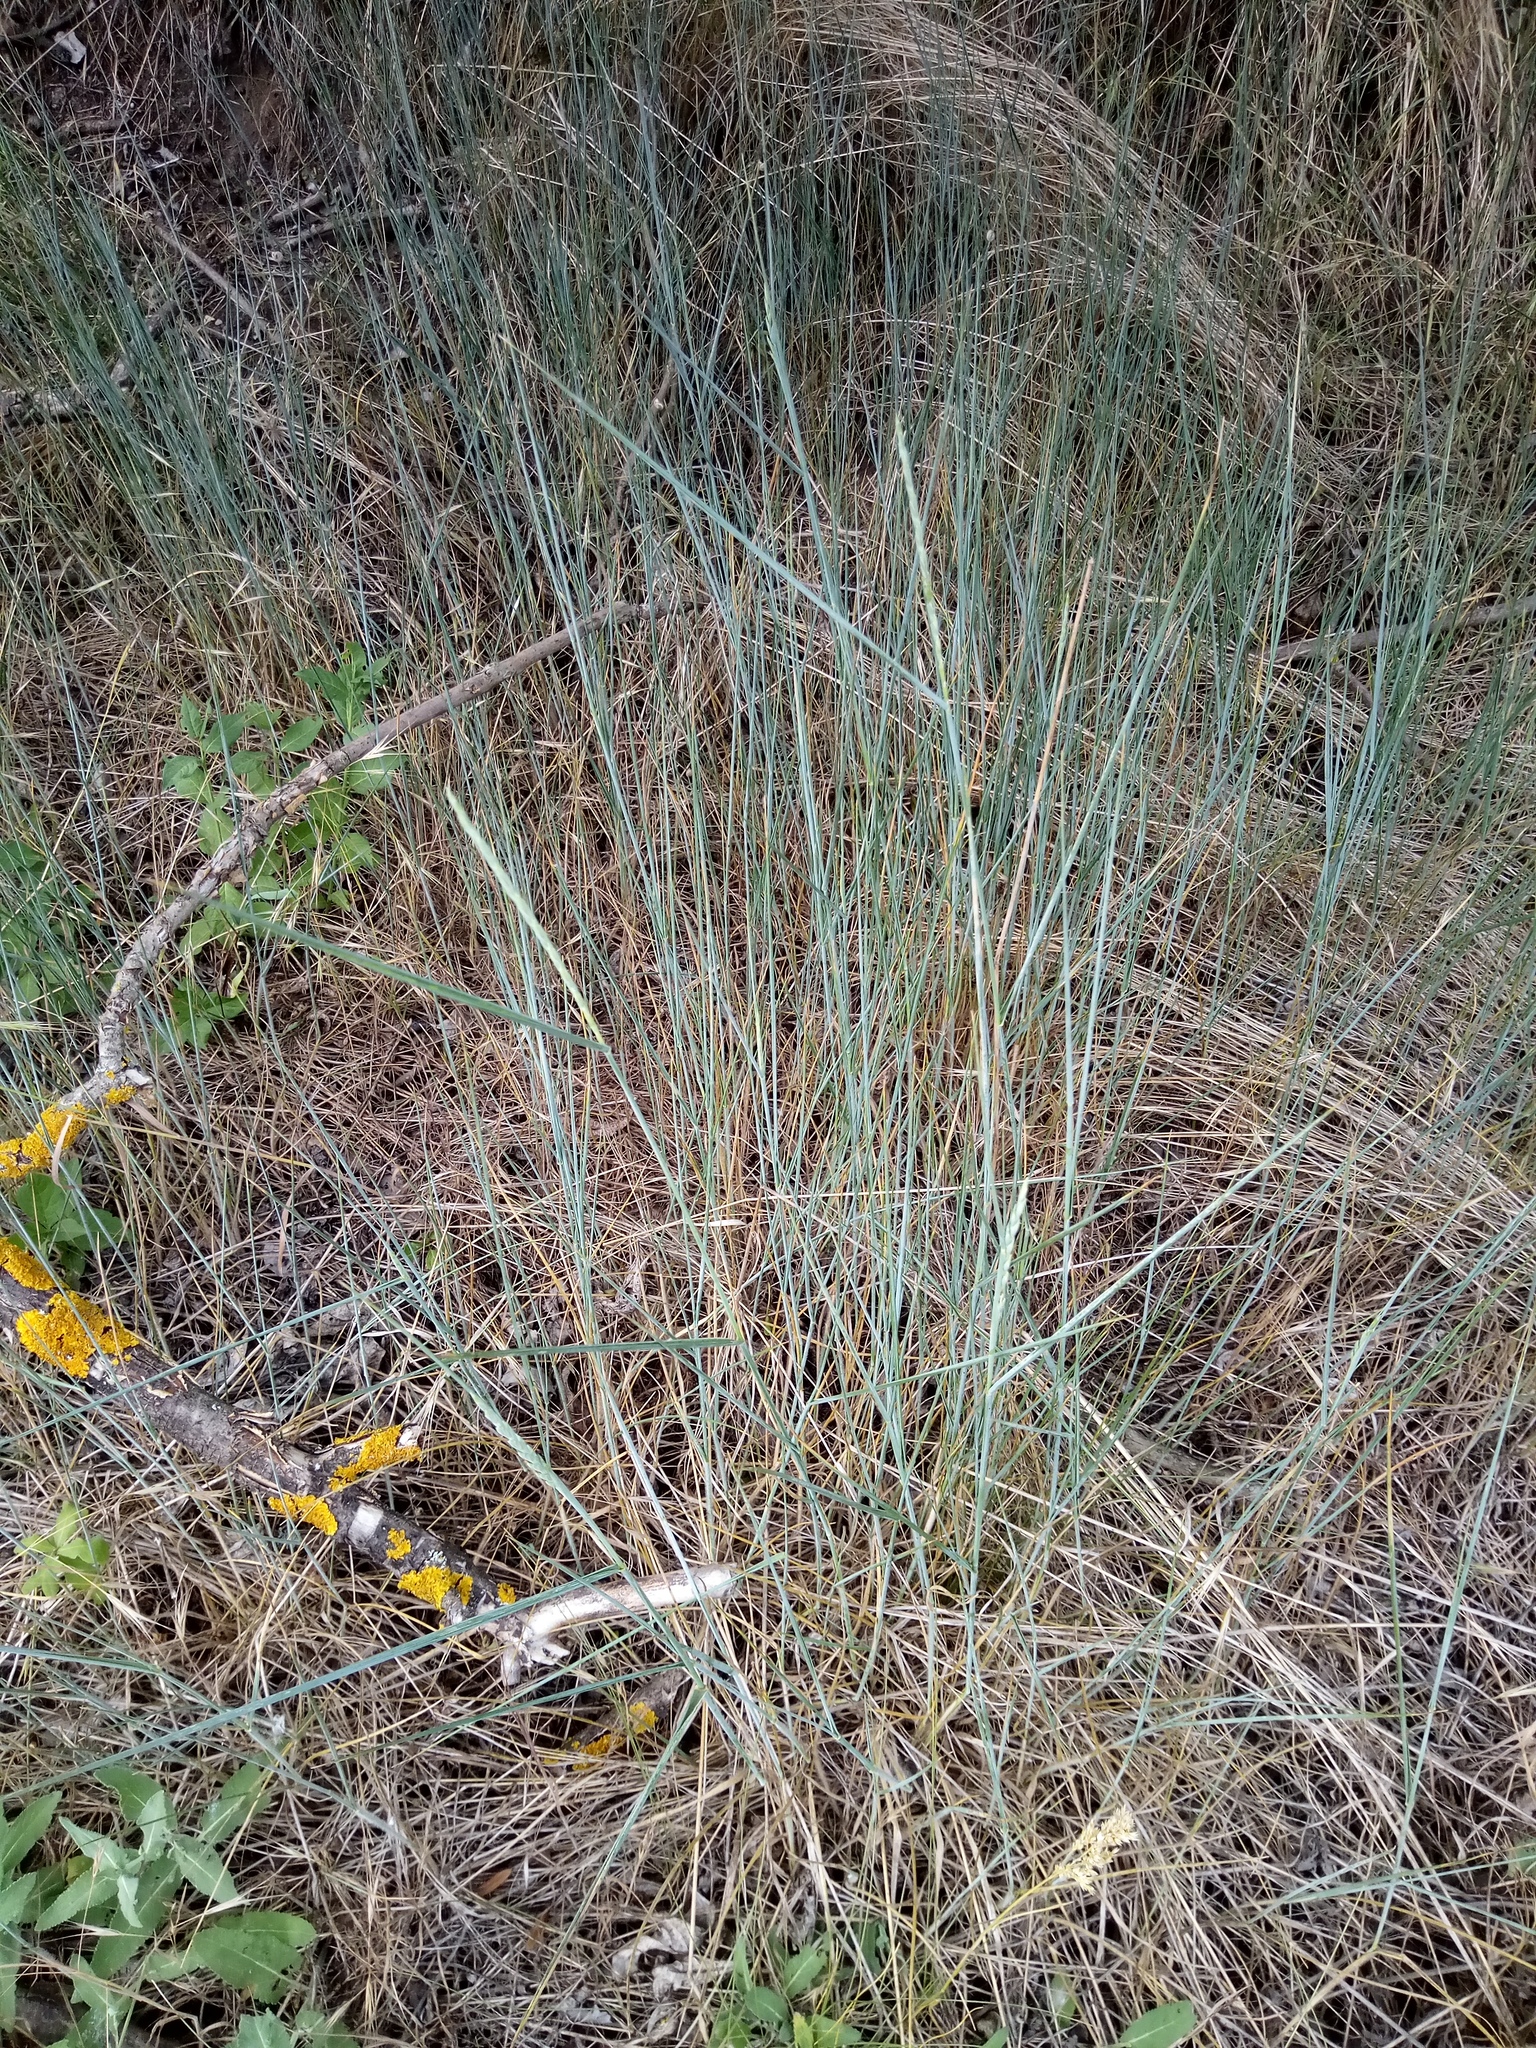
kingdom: Plantae
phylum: Tracheophyta
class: Liliopsida
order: Poales
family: Poaceae
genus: Elymus
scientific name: Elymus repens
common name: Quackgrass
